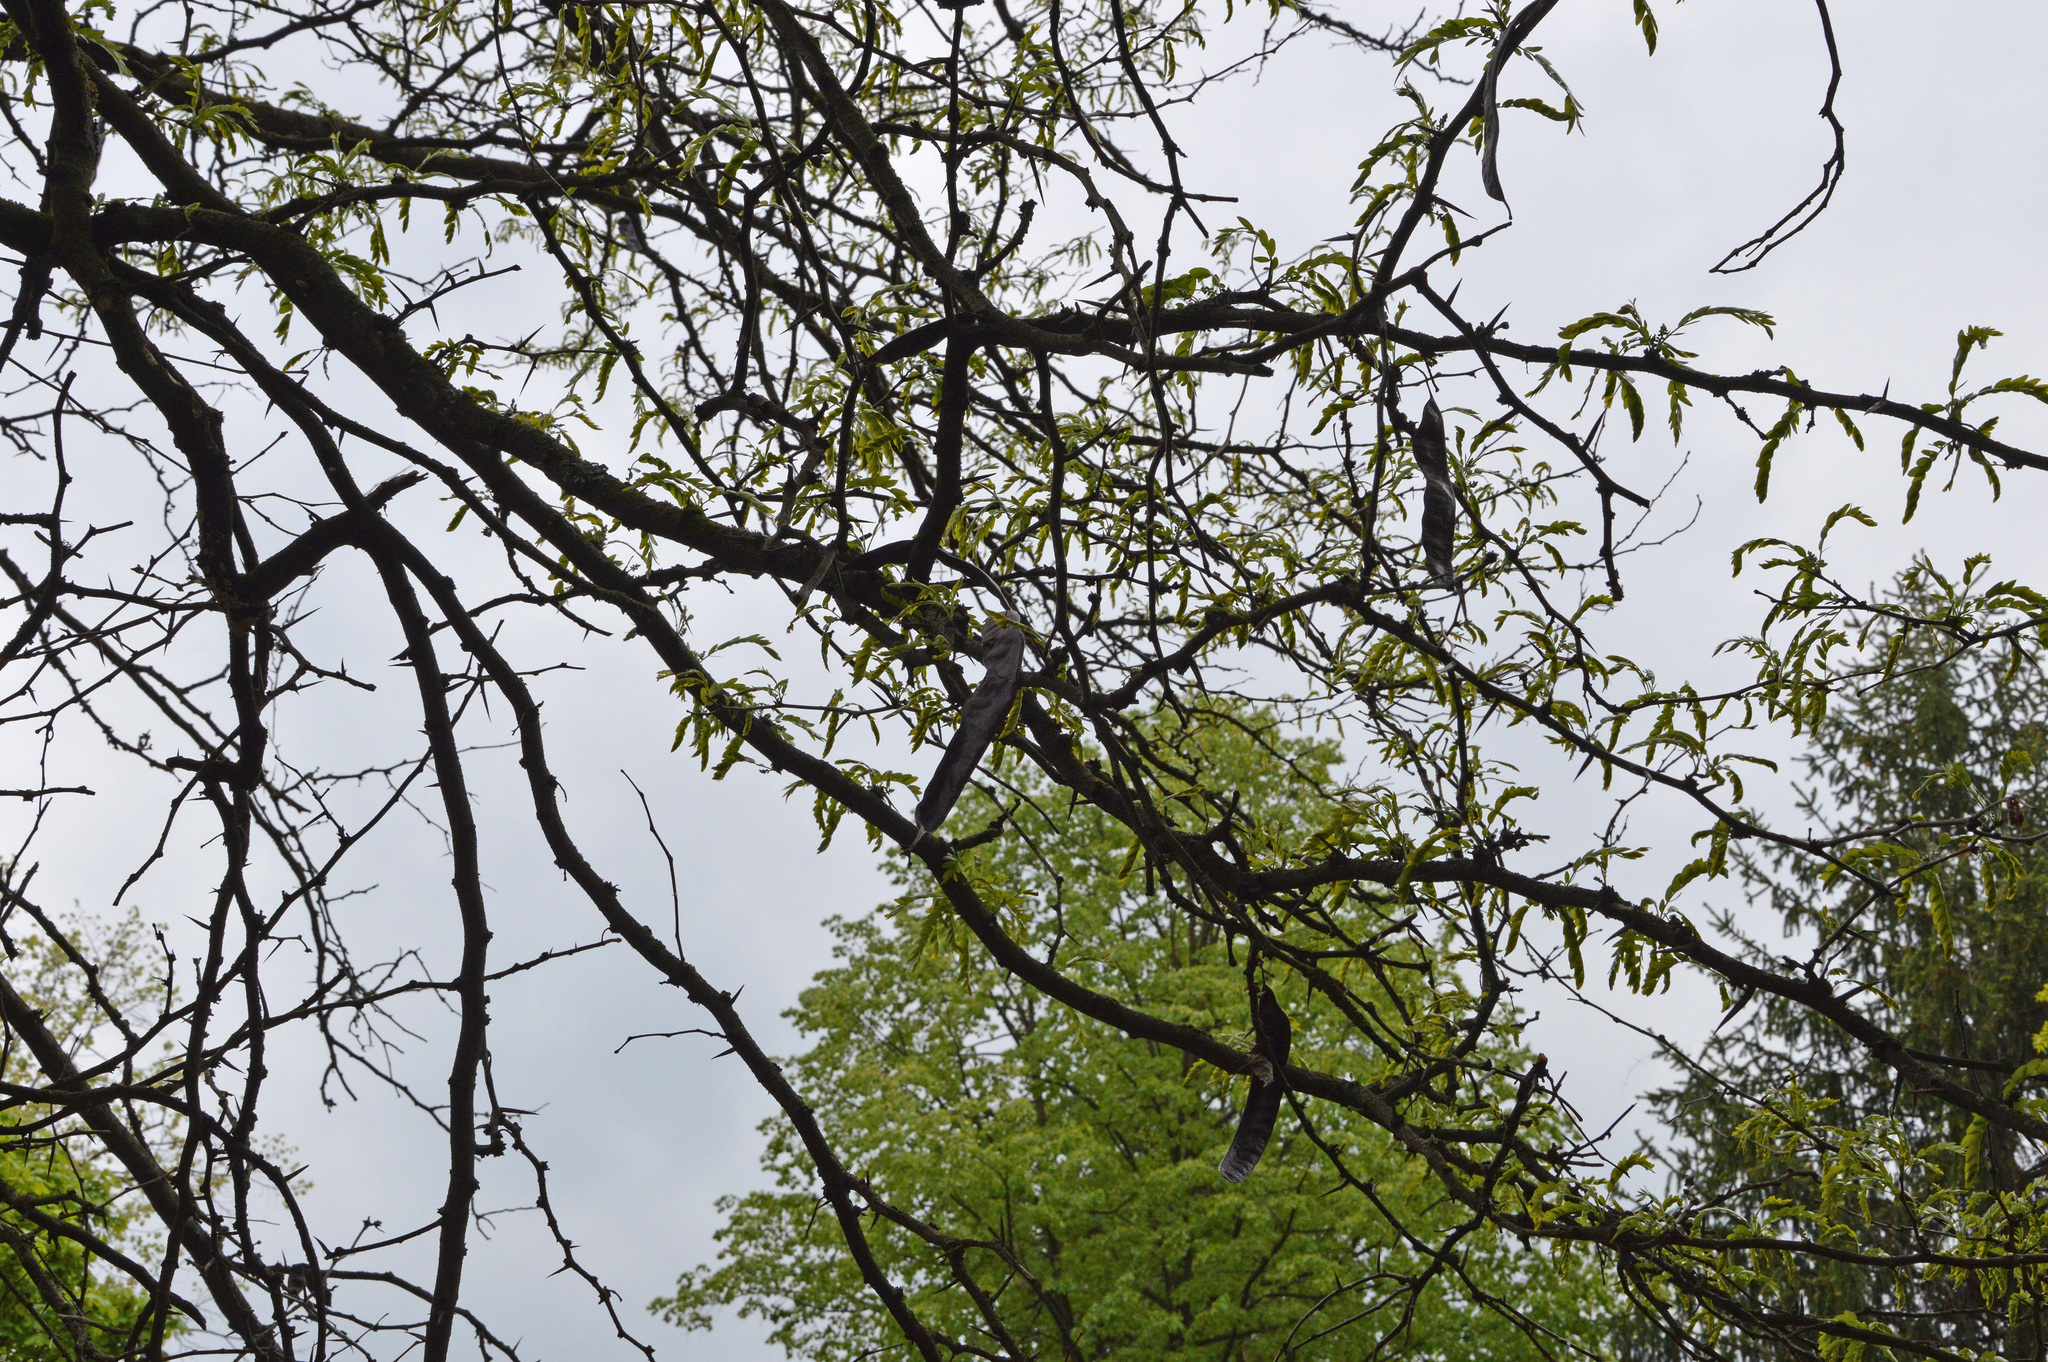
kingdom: Plantae
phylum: Tracheophyta
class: Magnoliopsida
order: Fabales
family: Fabaceae
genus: Gleditsia
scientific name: Gleditsia triacanthos
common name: Common honeylocust
